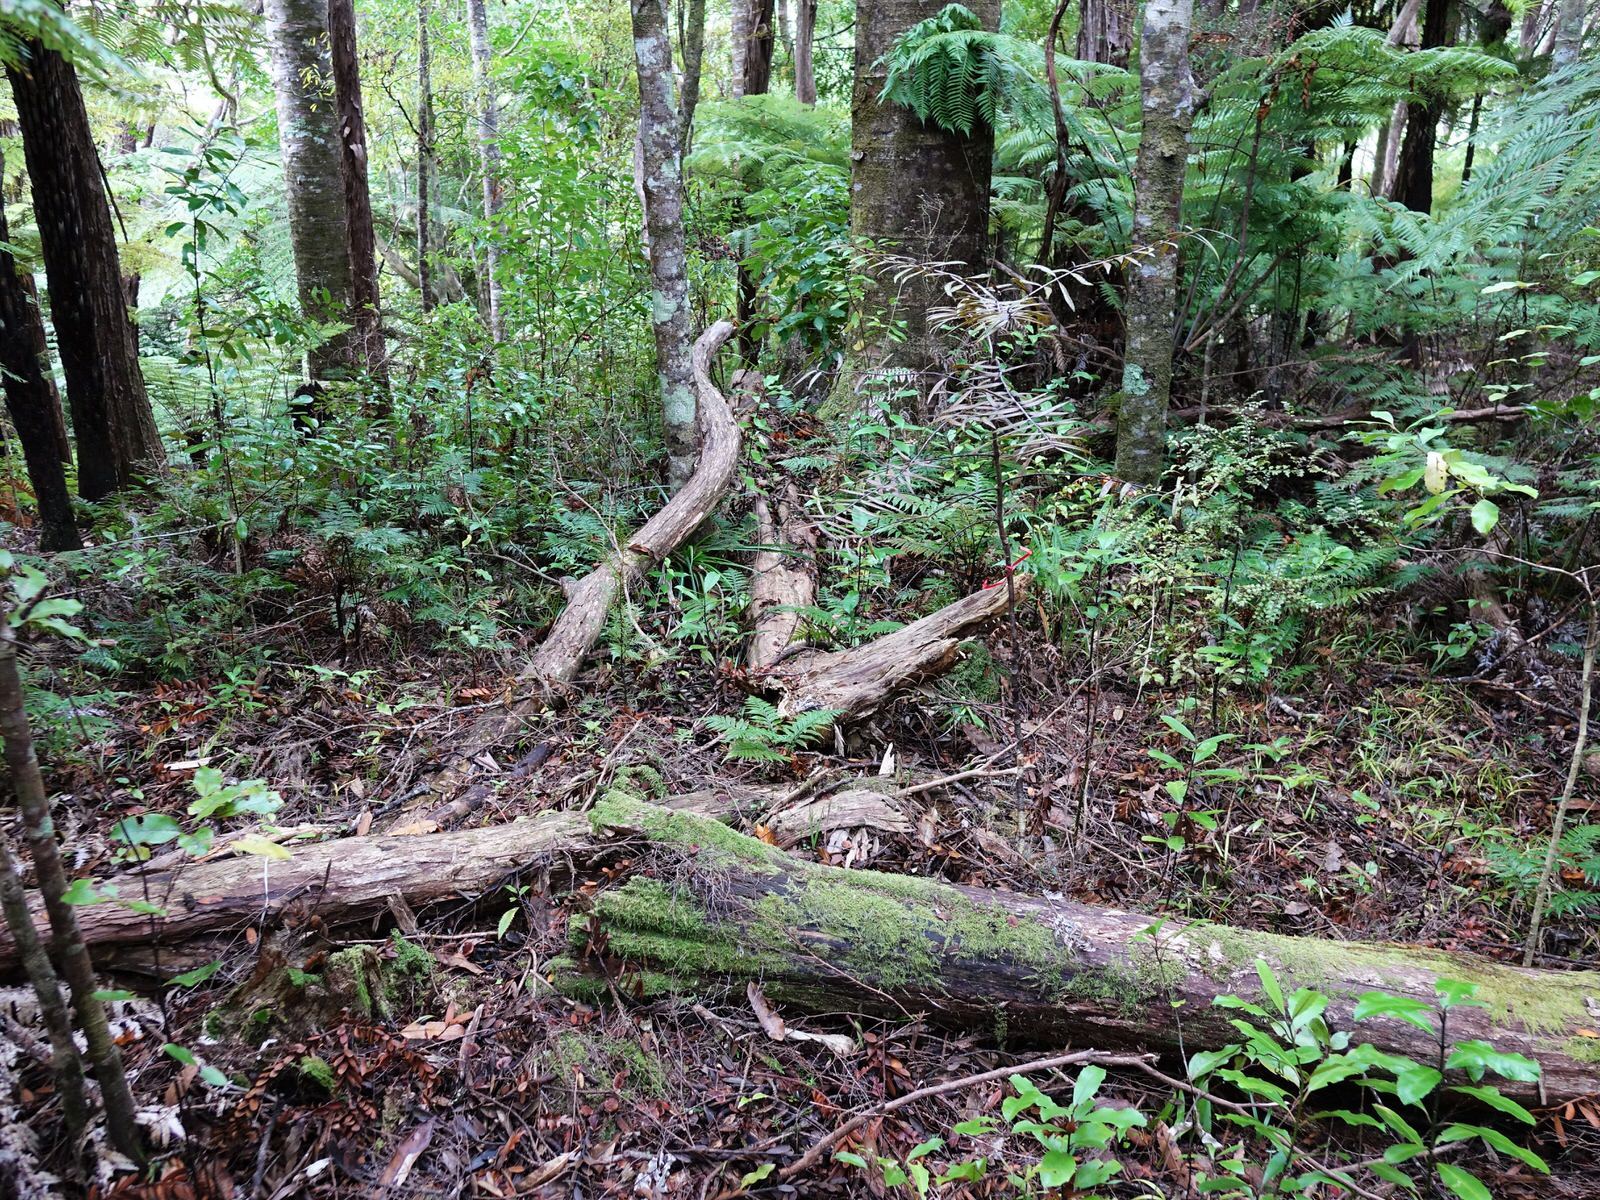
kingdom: Animalia
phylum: Arthropoda
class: Insecta
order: Hymenoptera
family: Vespidae
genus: Vespula
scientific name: Vespula
